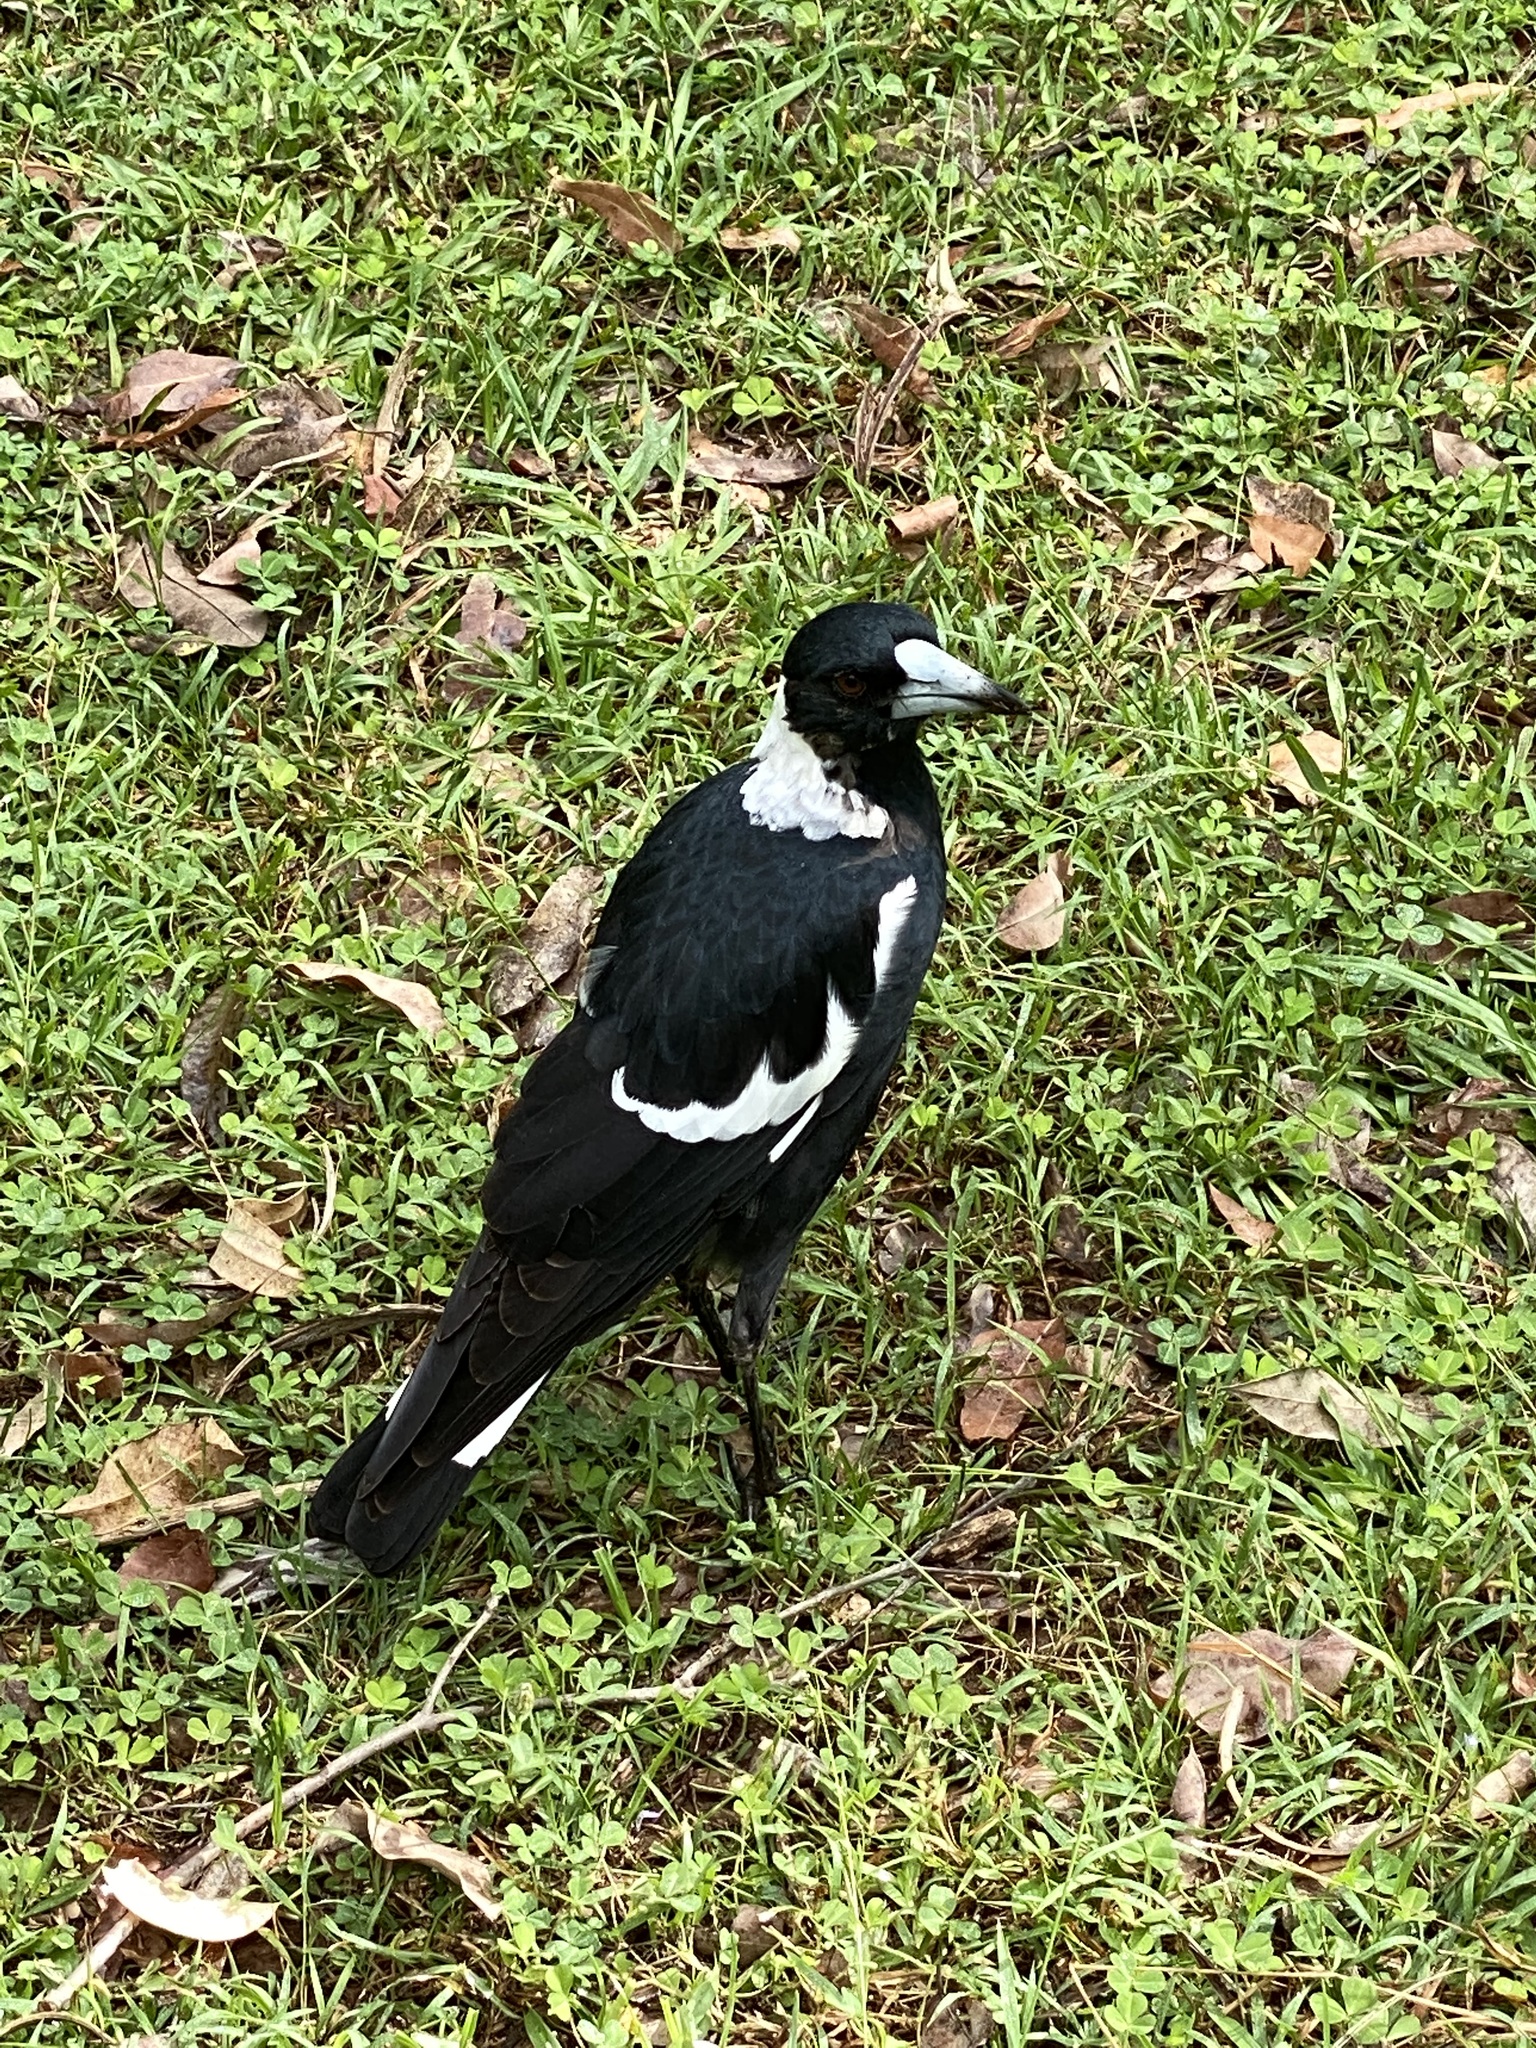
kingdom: Animalia
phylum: Chordata
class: Aves
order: Passeriformes
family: Cracticidae
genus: Gymnorhina
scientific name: Gymnorhina tibicen
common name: Australian magpie
